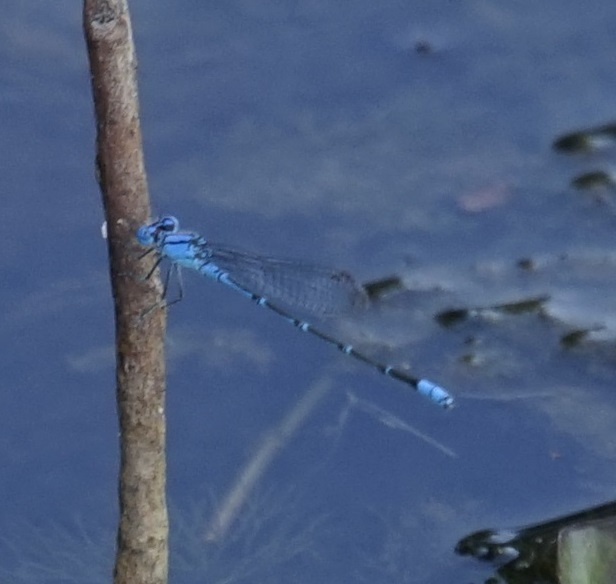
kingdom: Animalia
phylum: Arthropoda
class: Insecta
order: Odonata
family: Coenagrionidae
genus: Pseudagrion
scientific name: Pseudagrion microcephalum
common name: Blue riverdamsel
